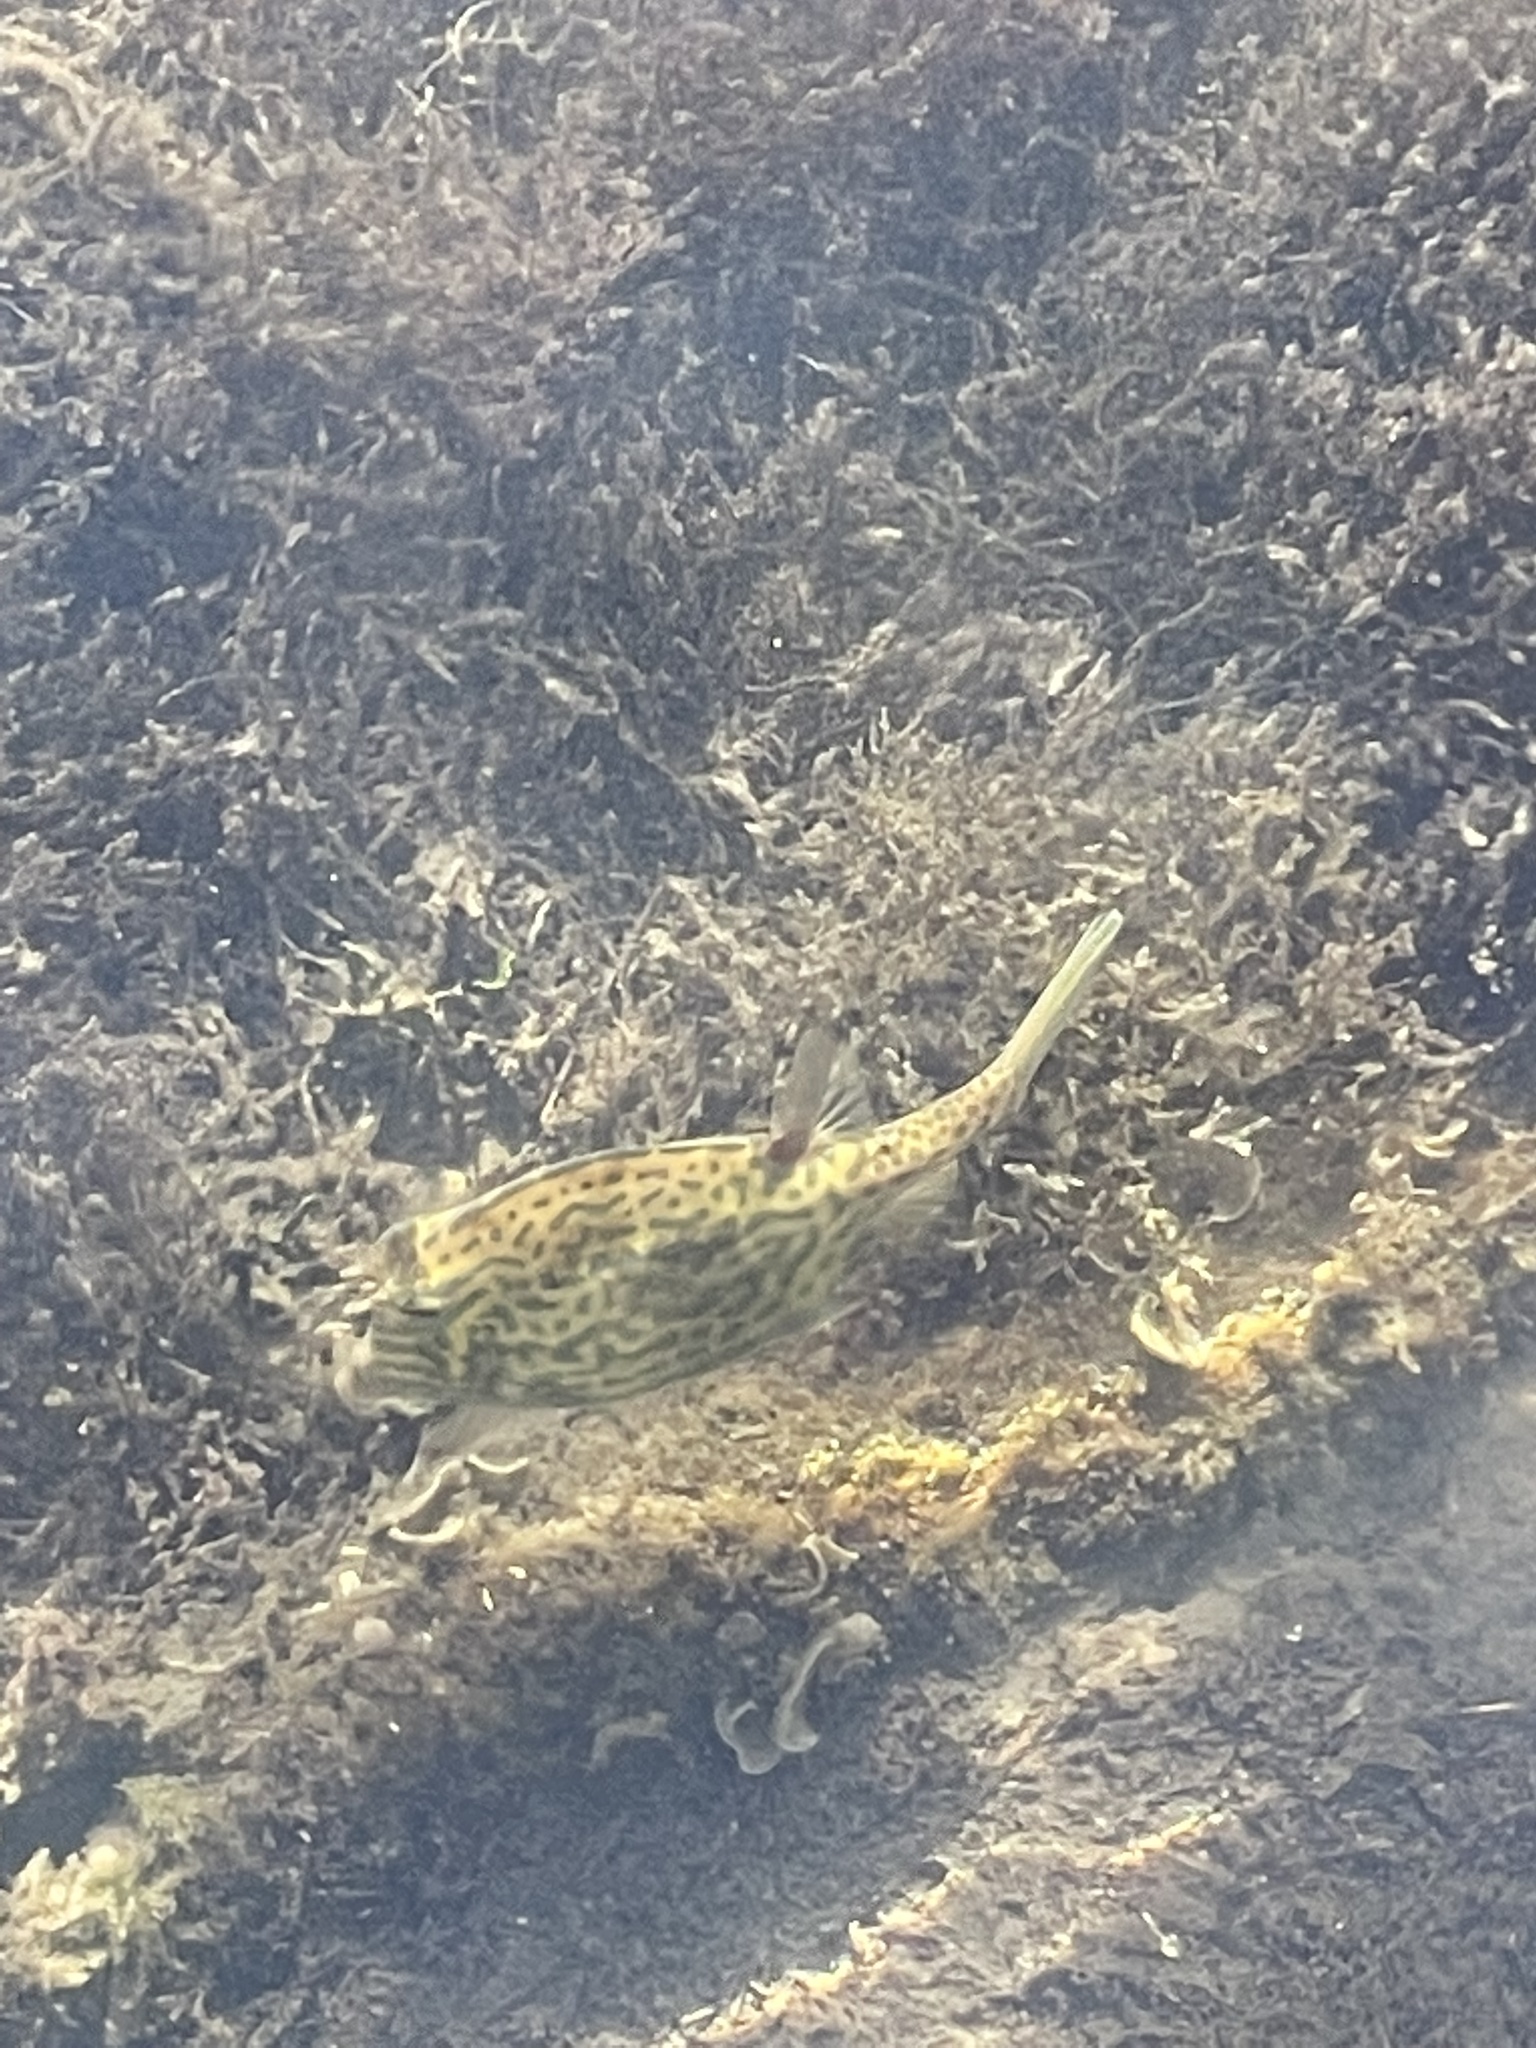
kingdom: Animalia
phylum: Chordata
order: Tetraodontiformes
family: Ostraciidae
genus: Acanthostracion
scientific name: Acanthostracion quadricornis
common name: Scrawled cowfish
